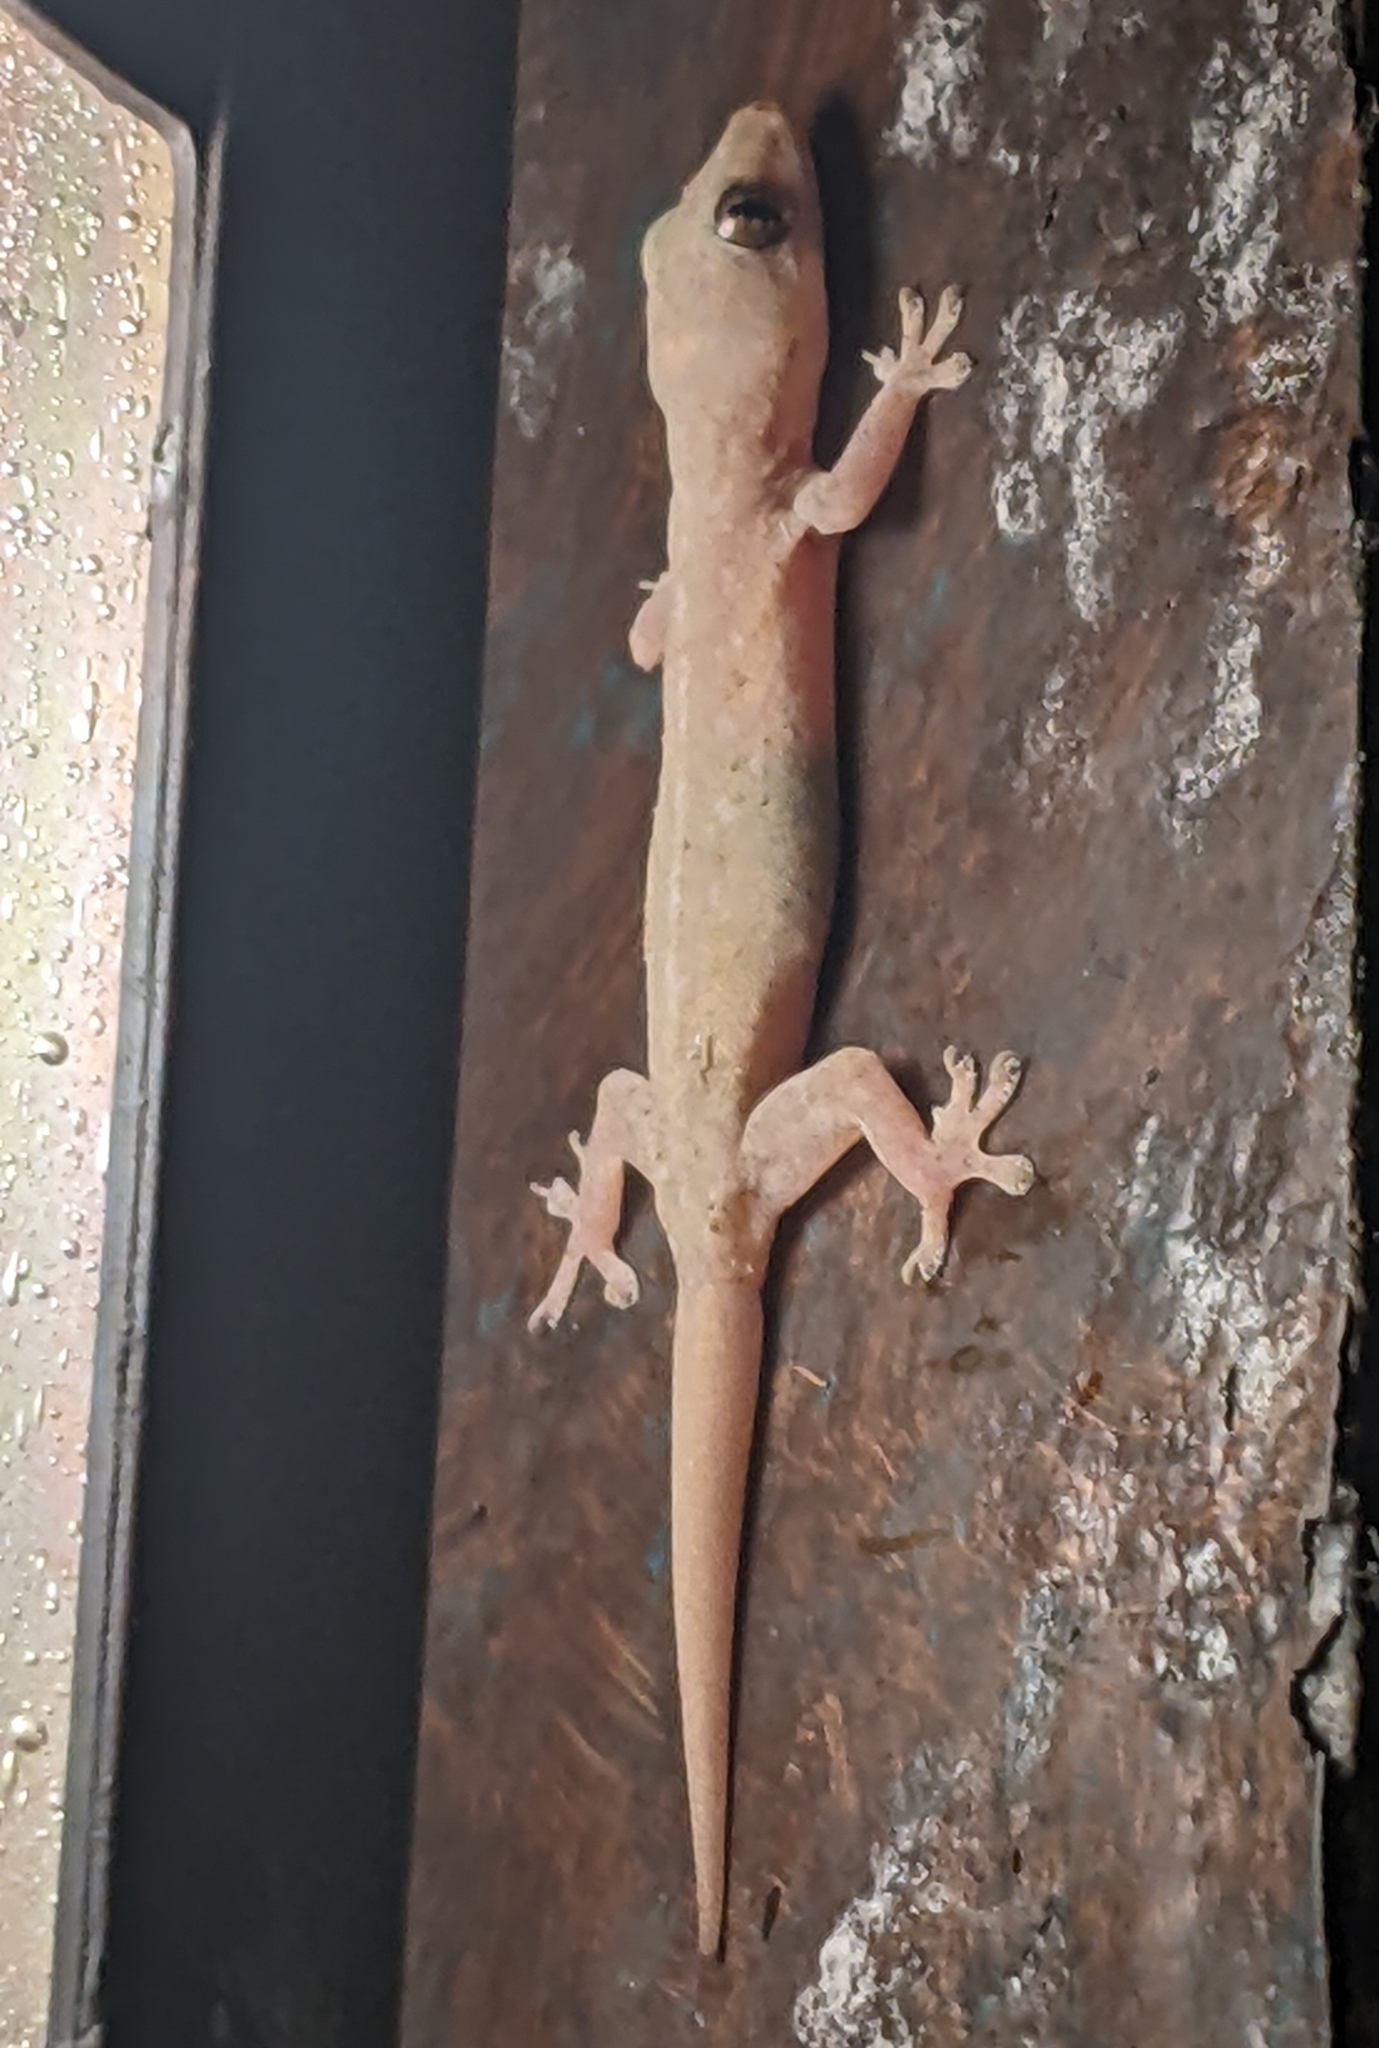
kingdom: Animalia
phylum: Chordata
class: Squamata
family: Gekkonidae
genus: Hemidactylus
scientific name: Hemidactylus frenatus
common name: Common house gecko
